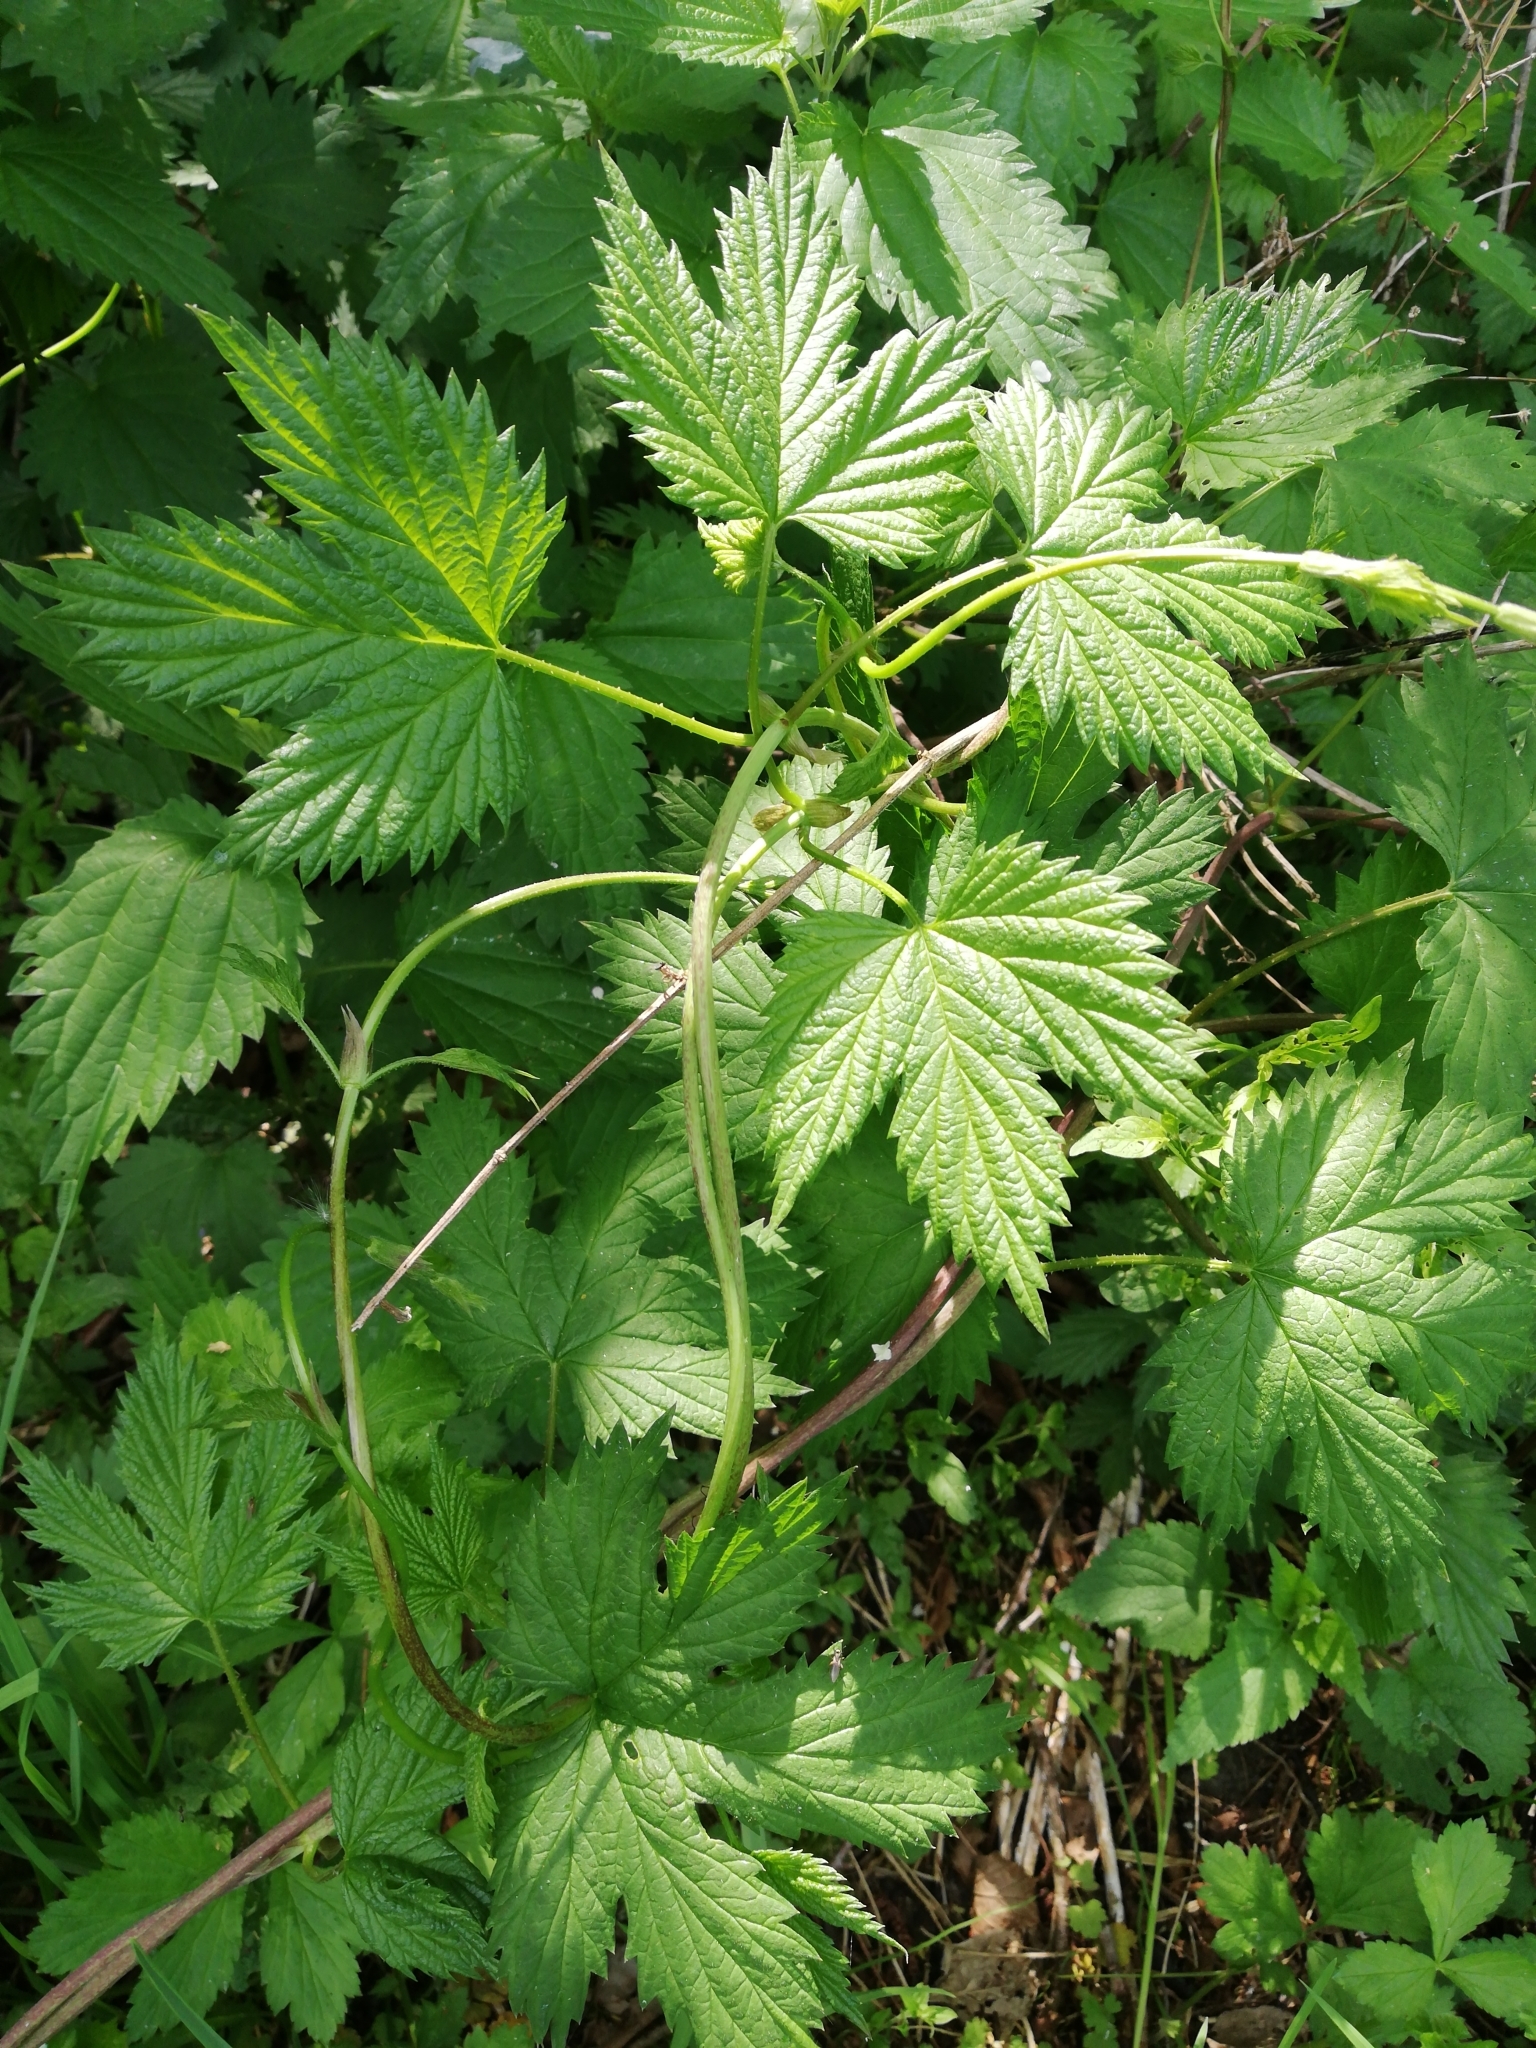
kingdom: Plantae
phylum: Tracheophyta
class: Magnoliopsida
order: Rosales
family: Cannabaceae
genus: Humulus
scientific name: Humulus lupulus
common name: Hop
